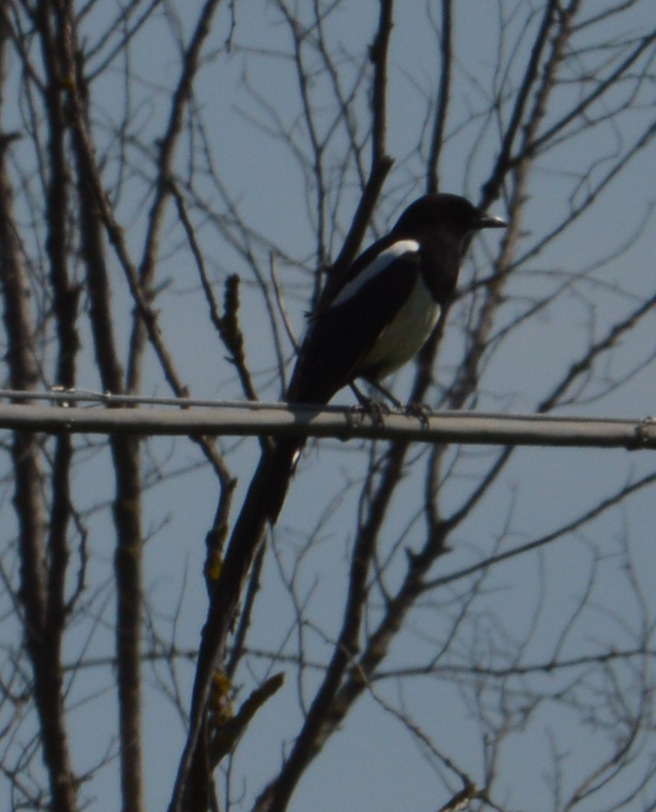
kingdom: Animalia
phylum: Chordata
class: Aves
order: Passeriformes
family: Corvidae
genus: Pica
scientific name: Pica pica
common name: Eurasian magpie
